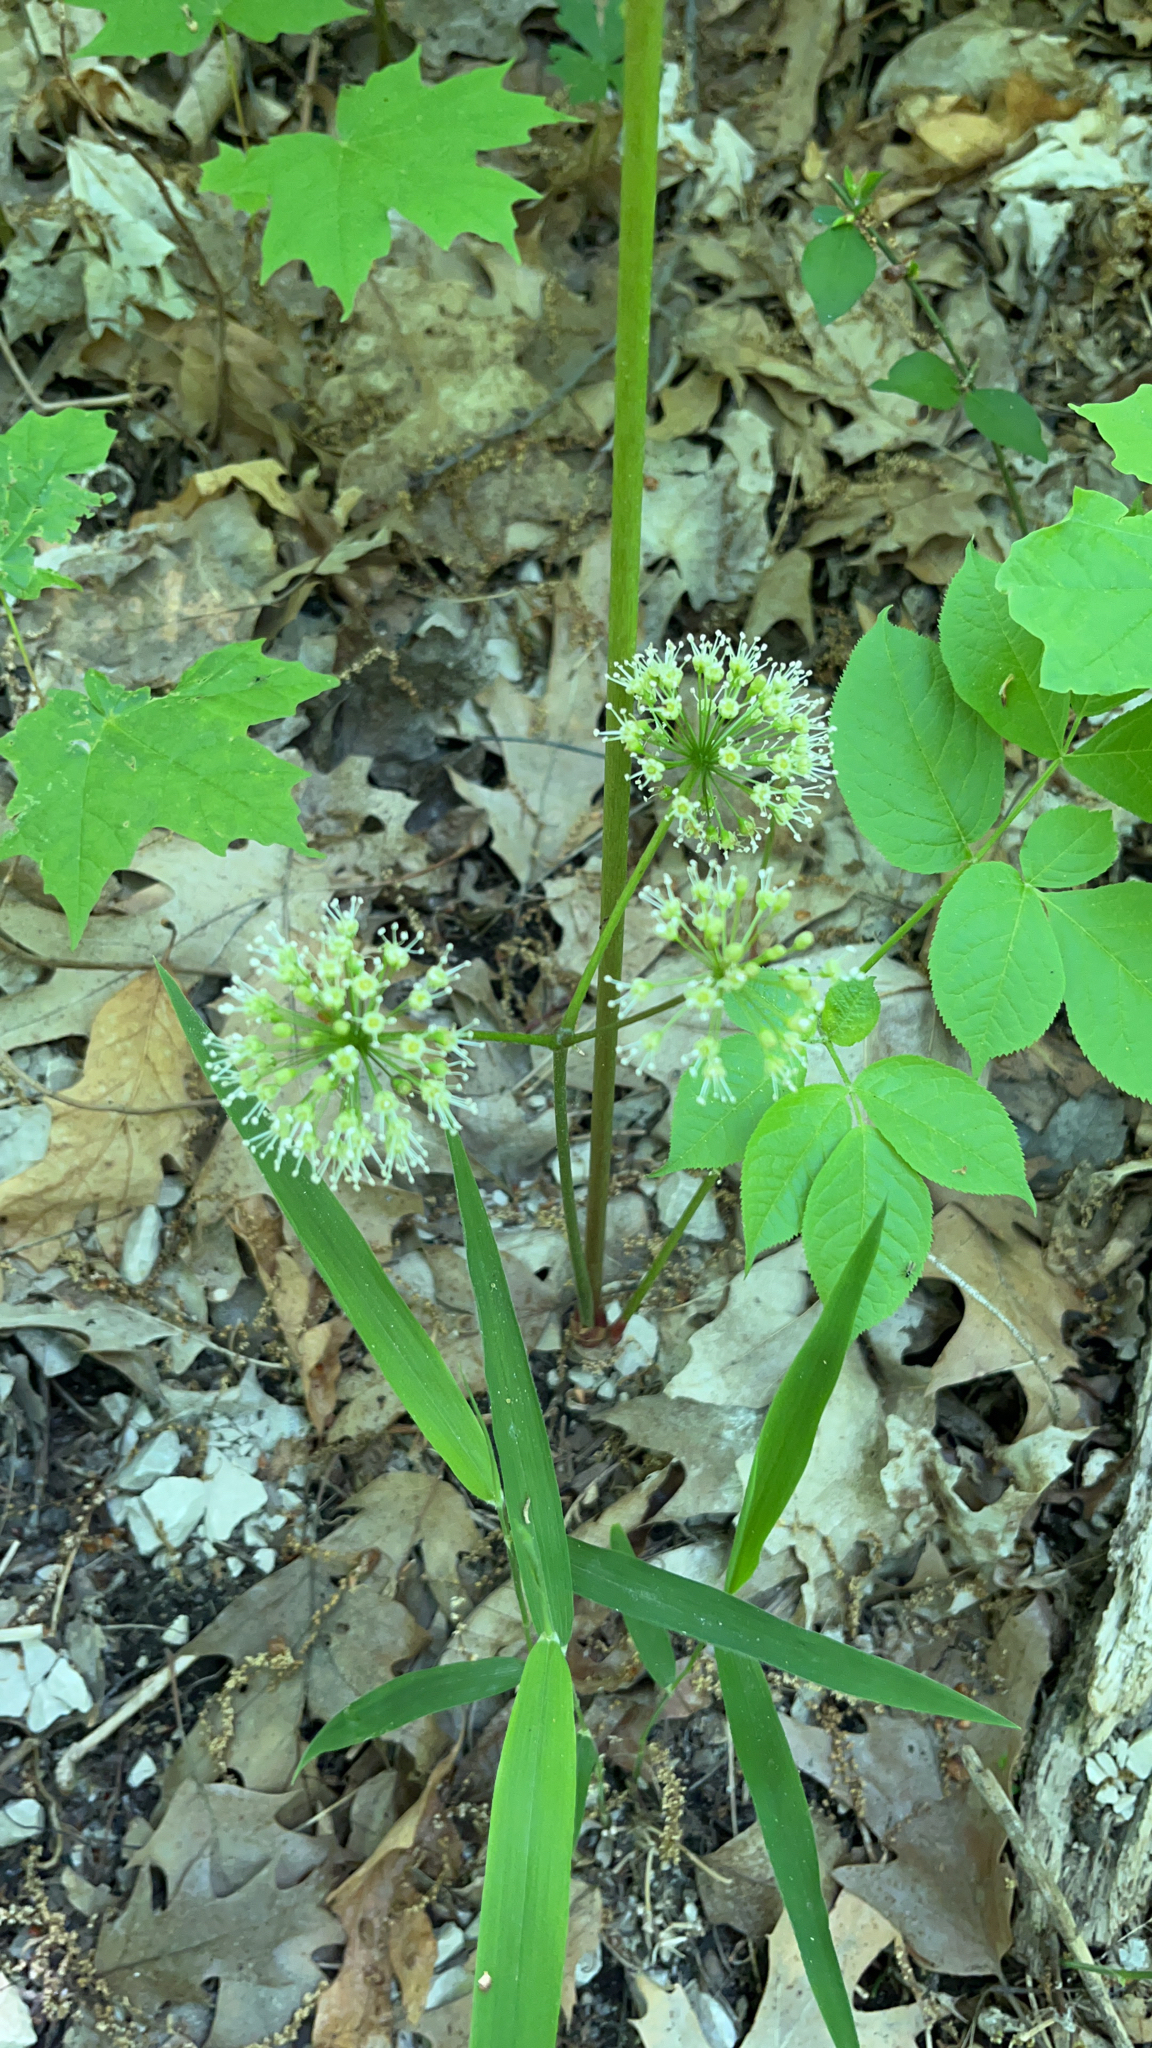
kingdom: Plantae
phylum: Tracheophyta
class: Magnoliopsida
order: Apiales
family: Araliaceae
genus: Aralia
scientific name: Aralia nudicaulis
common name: Wild sarsaparilla
